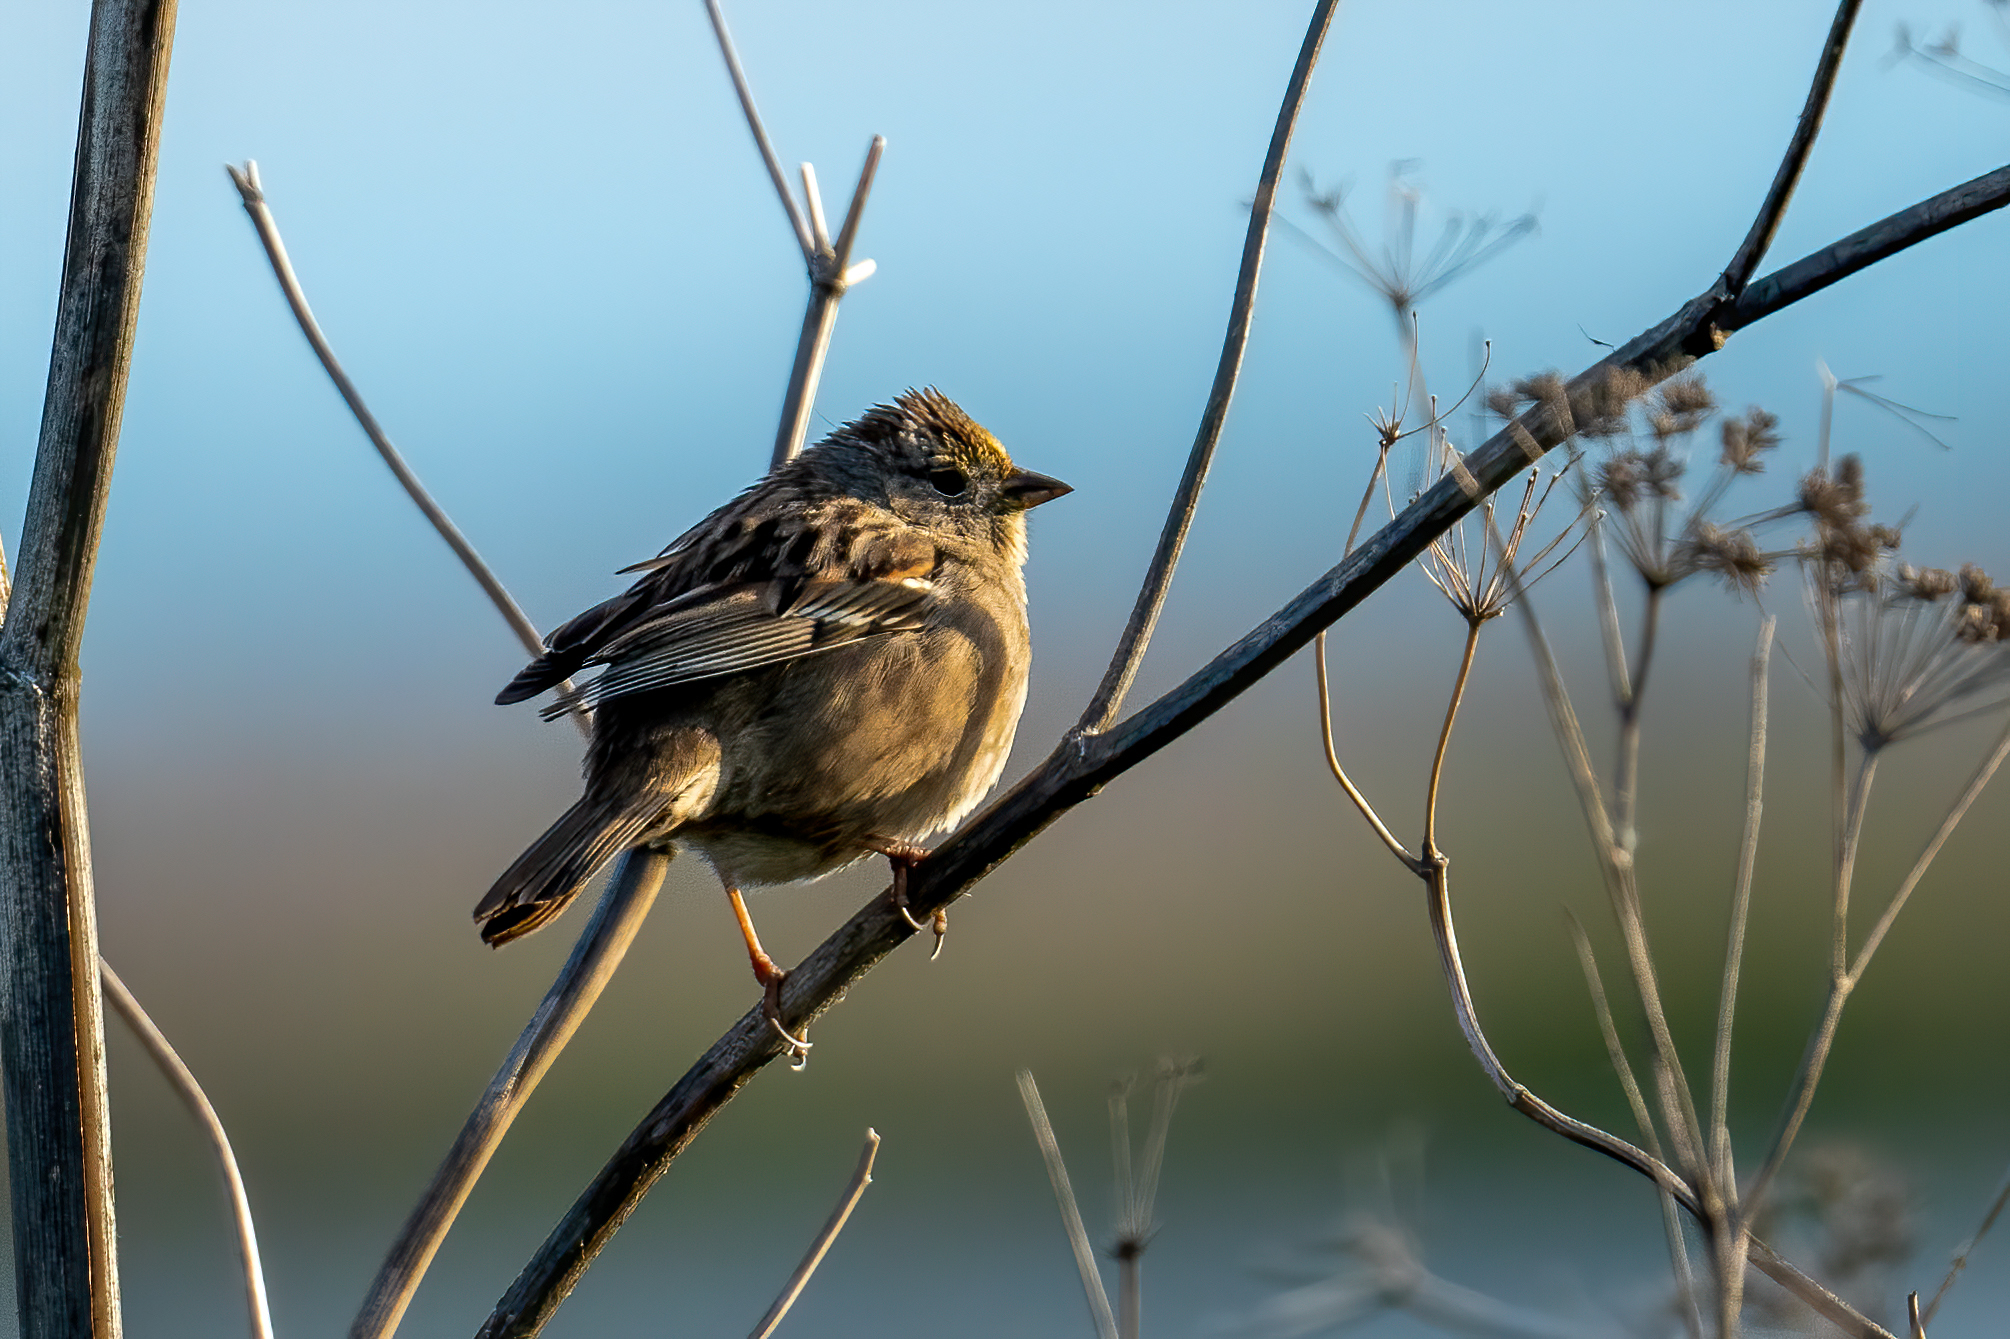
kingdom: Animalia
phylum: Chordata
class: Aves
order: Passeriformes
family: Passerellidae
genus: Zonotrichia
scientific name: Zonotrichia atricapilla
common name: Golden-crowned sparrow
